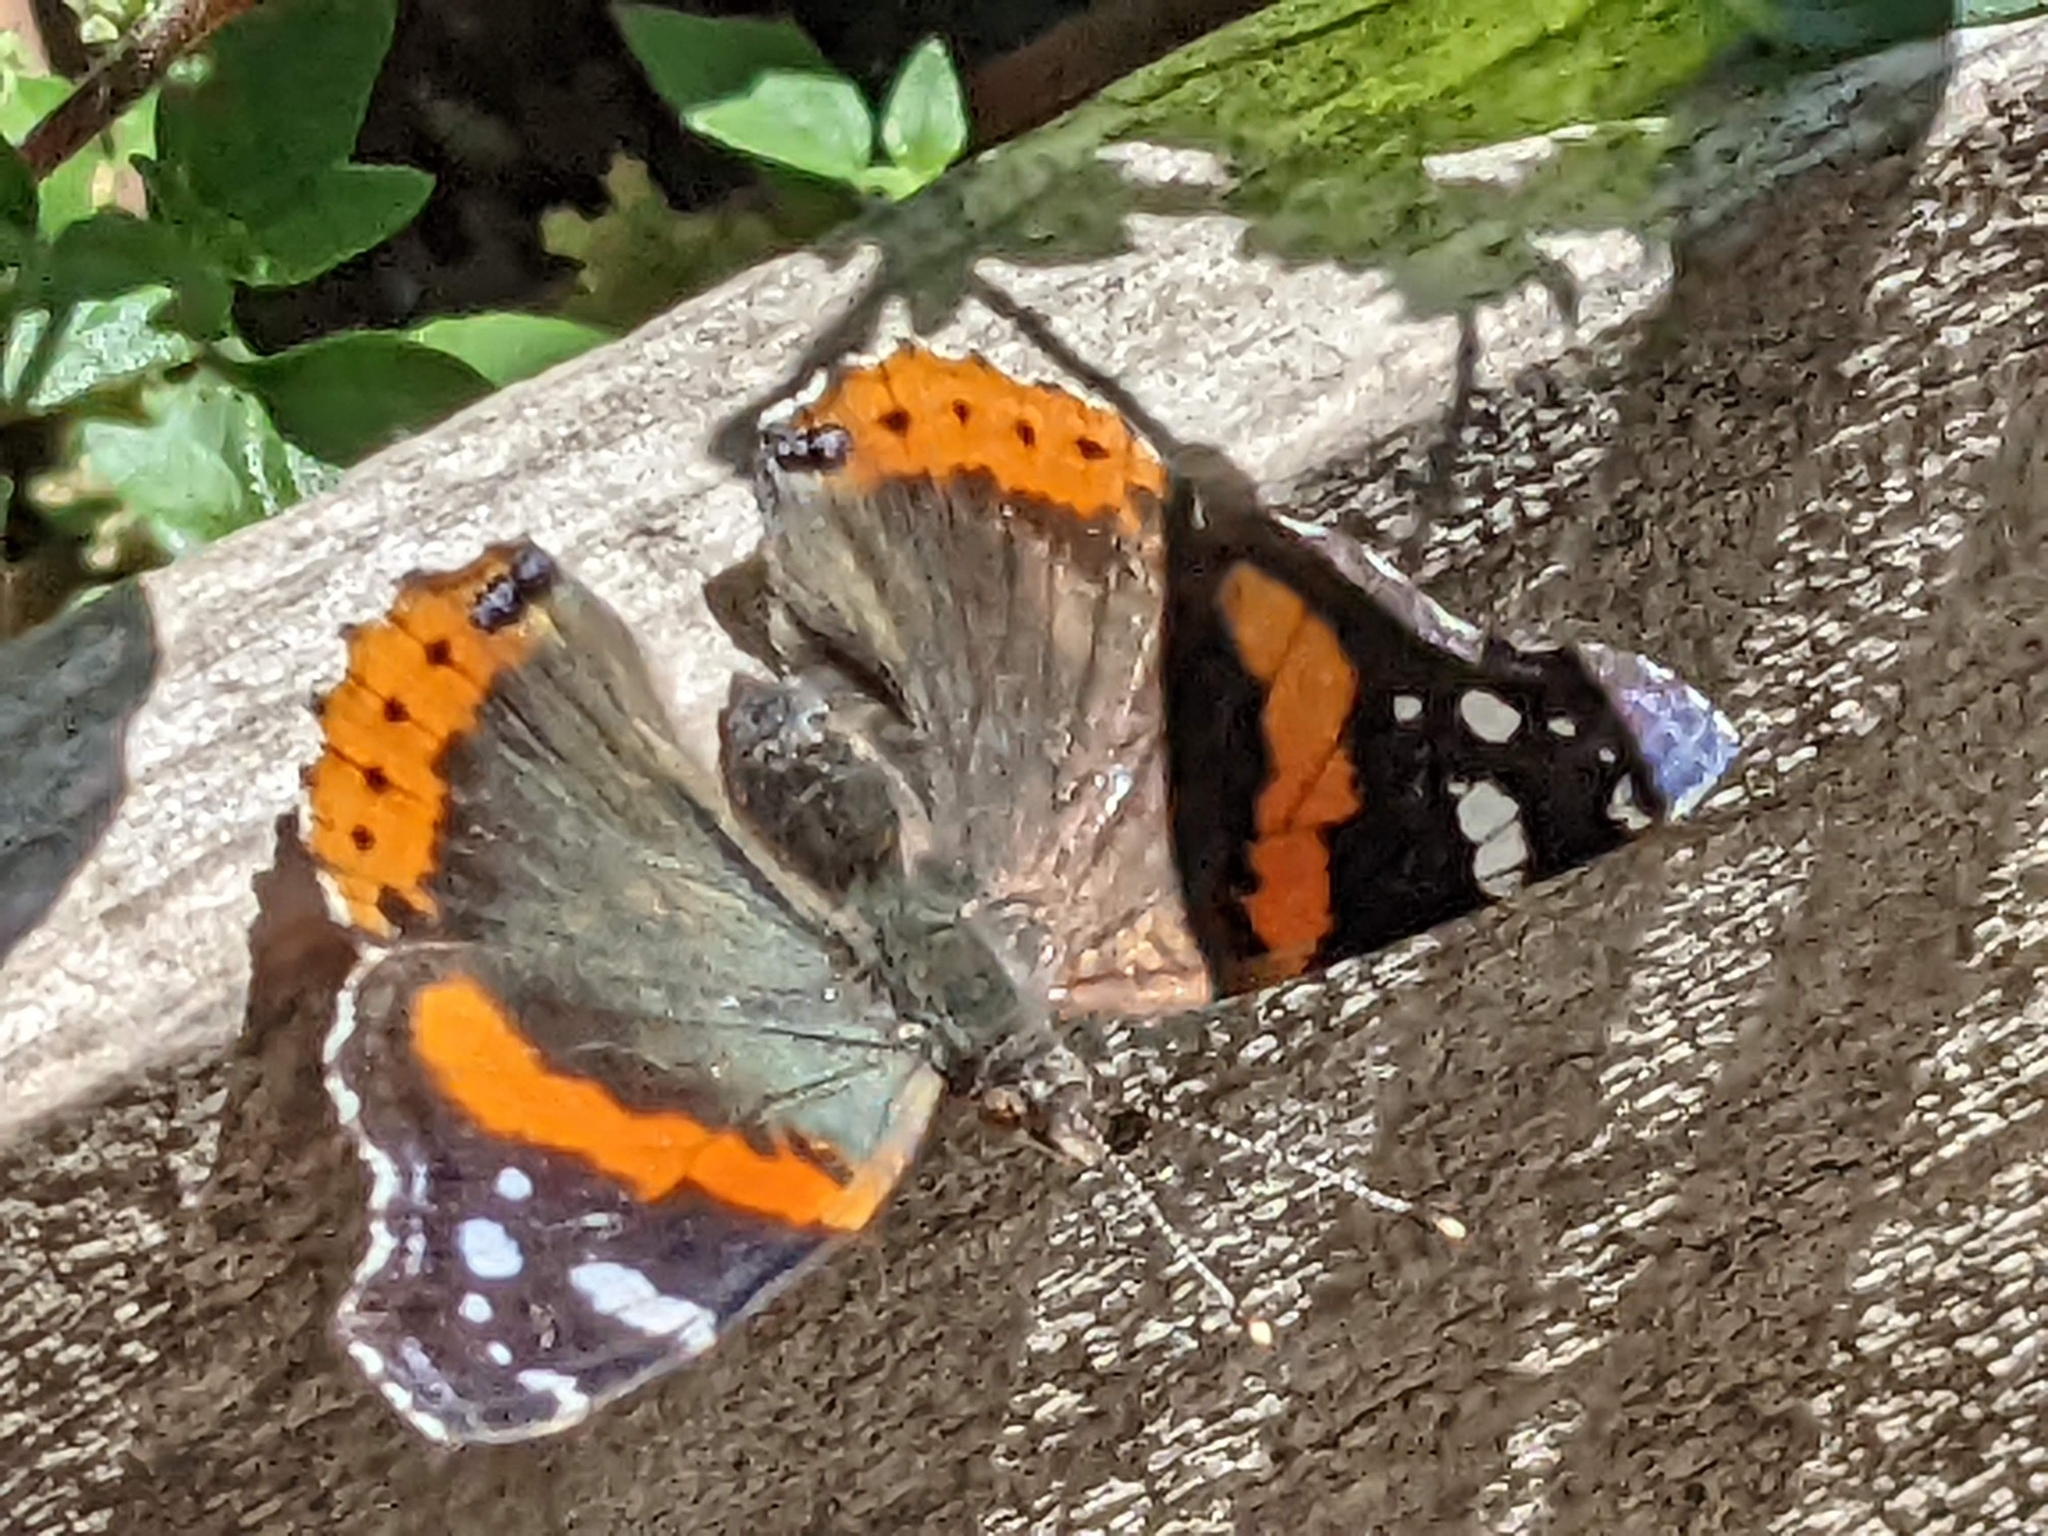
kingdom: Animalia
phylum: Arthropoda
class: Insecta
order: Lepidoptera
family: Nymphalidae
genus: Vanessa
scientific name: Vanessa atalanta
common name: Red admiral
